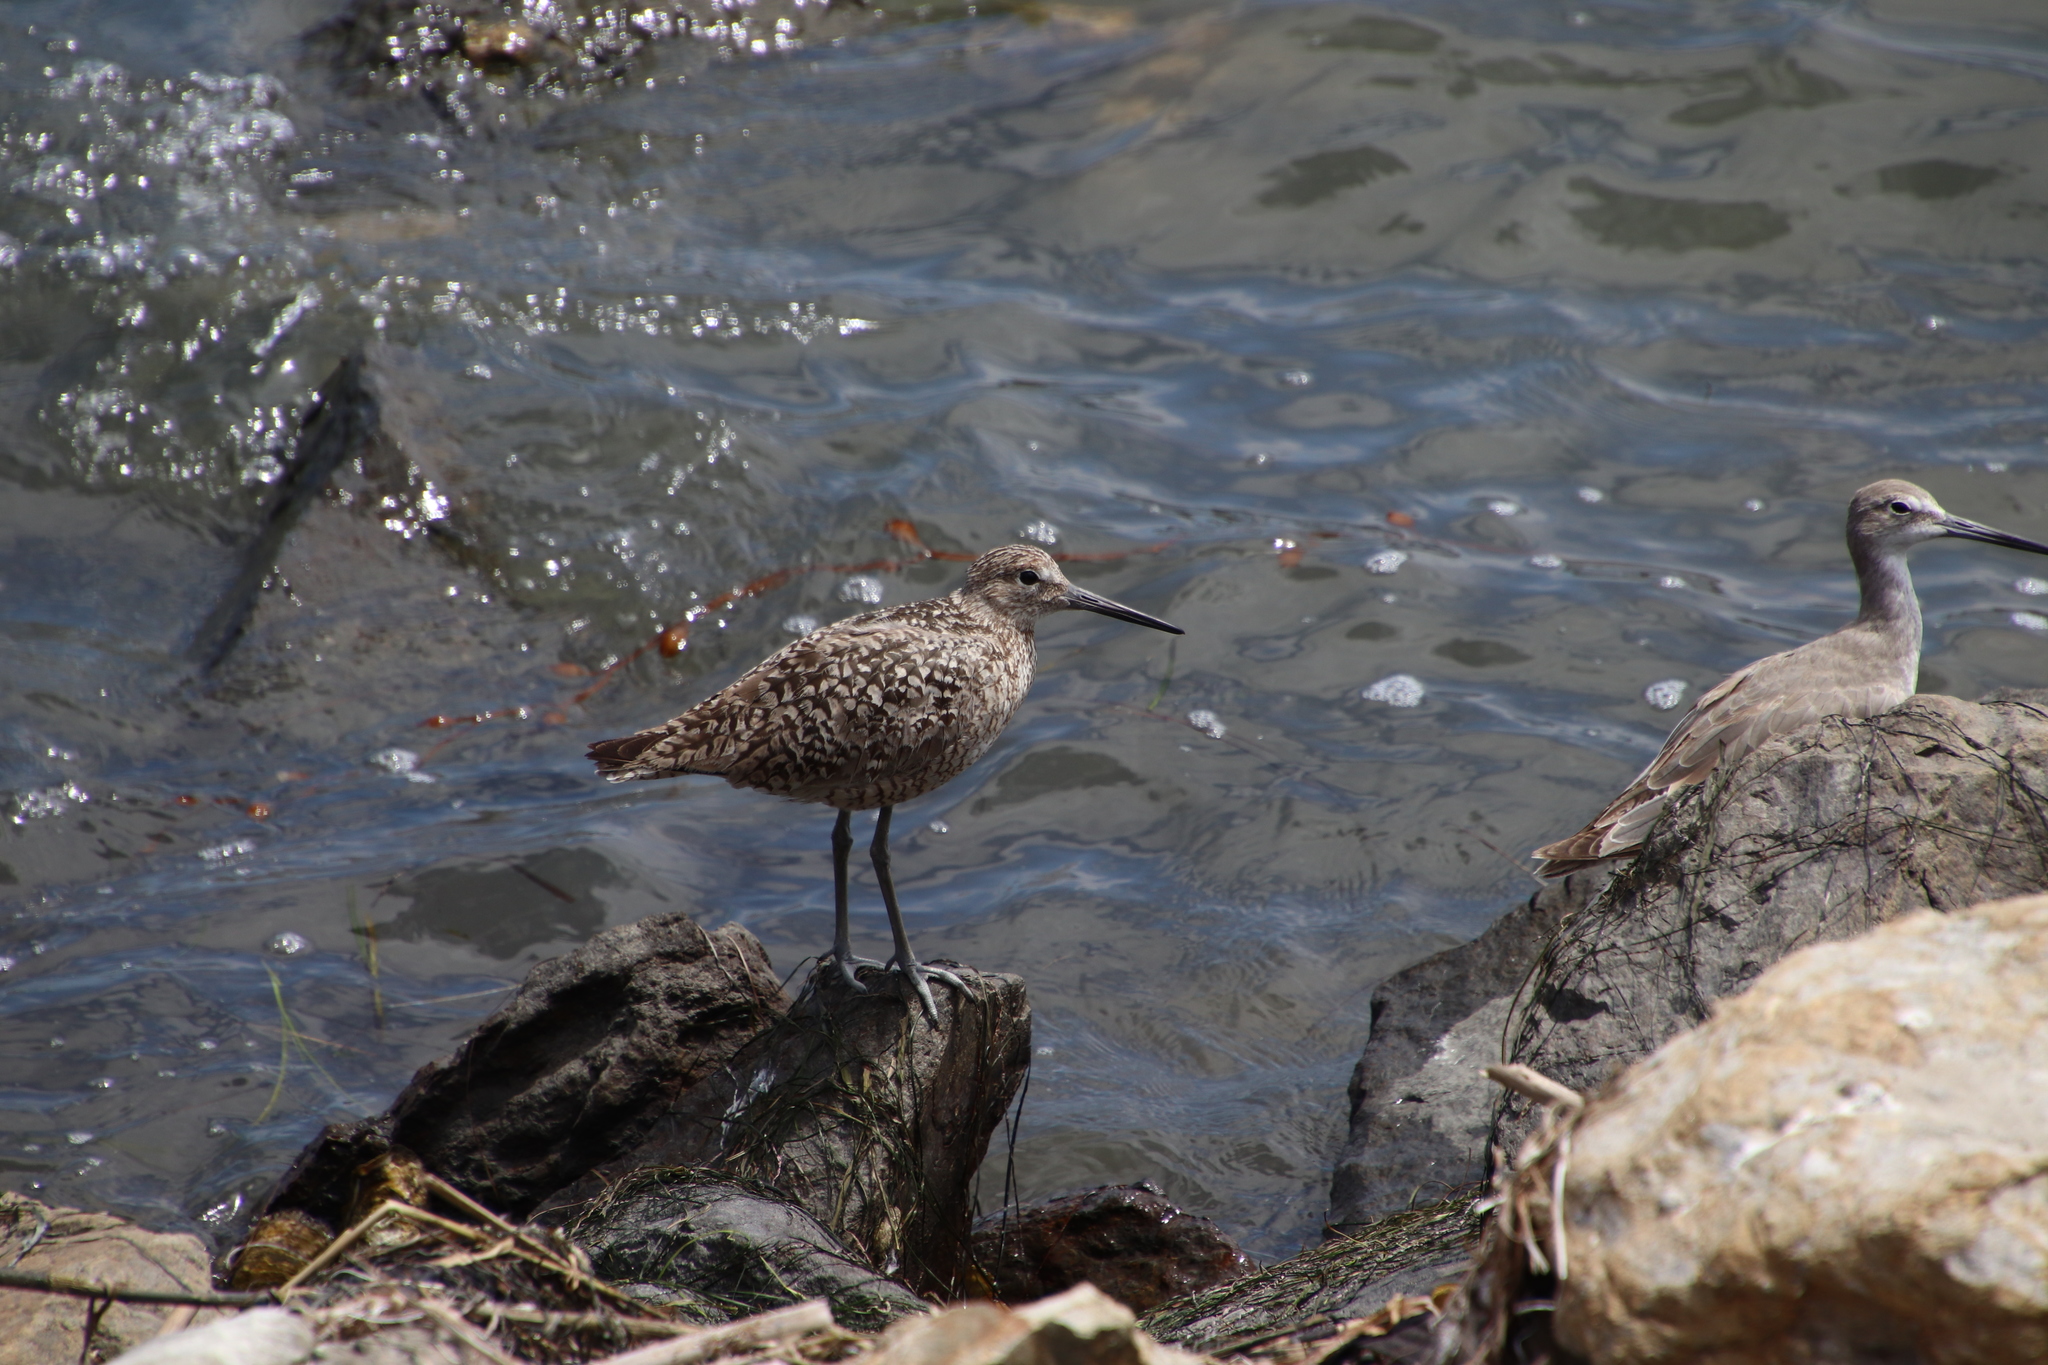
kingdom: Animalia
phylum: Chordata
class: Aves
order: Charadriiformes
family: Scolopacidae
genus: Tringa
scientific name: Tringa semipalmata
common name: Willet
